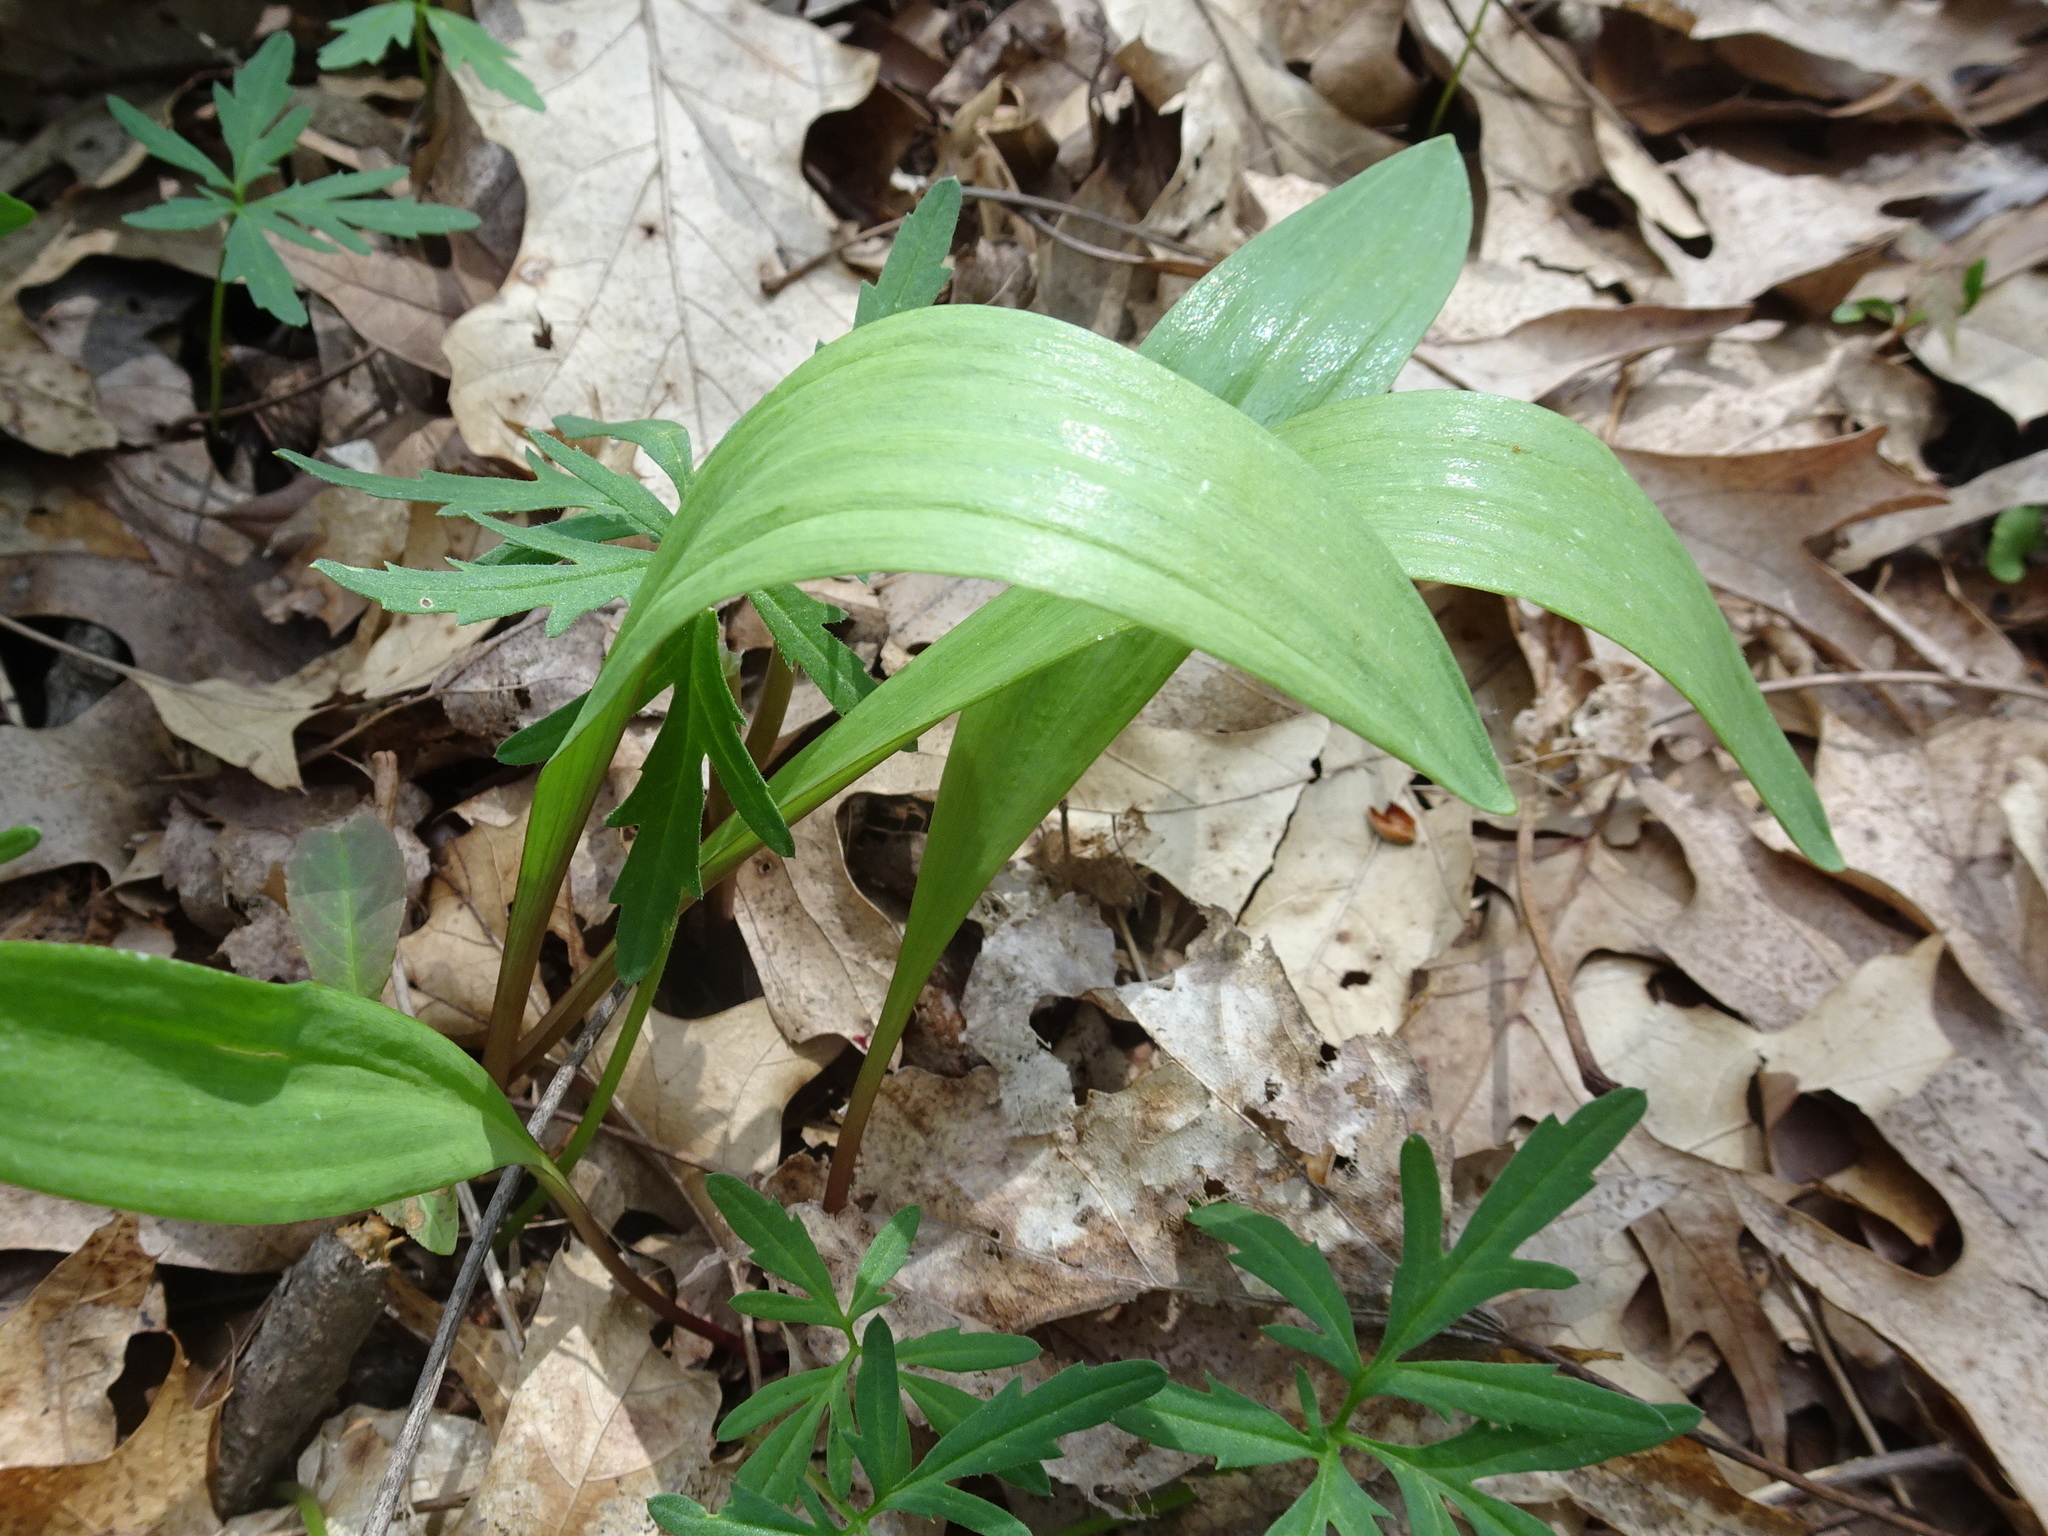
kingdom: Plantae
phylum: Tracheophyta
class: Liliopsida
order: Asparagales
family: Amaryllidaceae
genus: Allium
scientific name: Allium tricoccum
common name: Ramp
